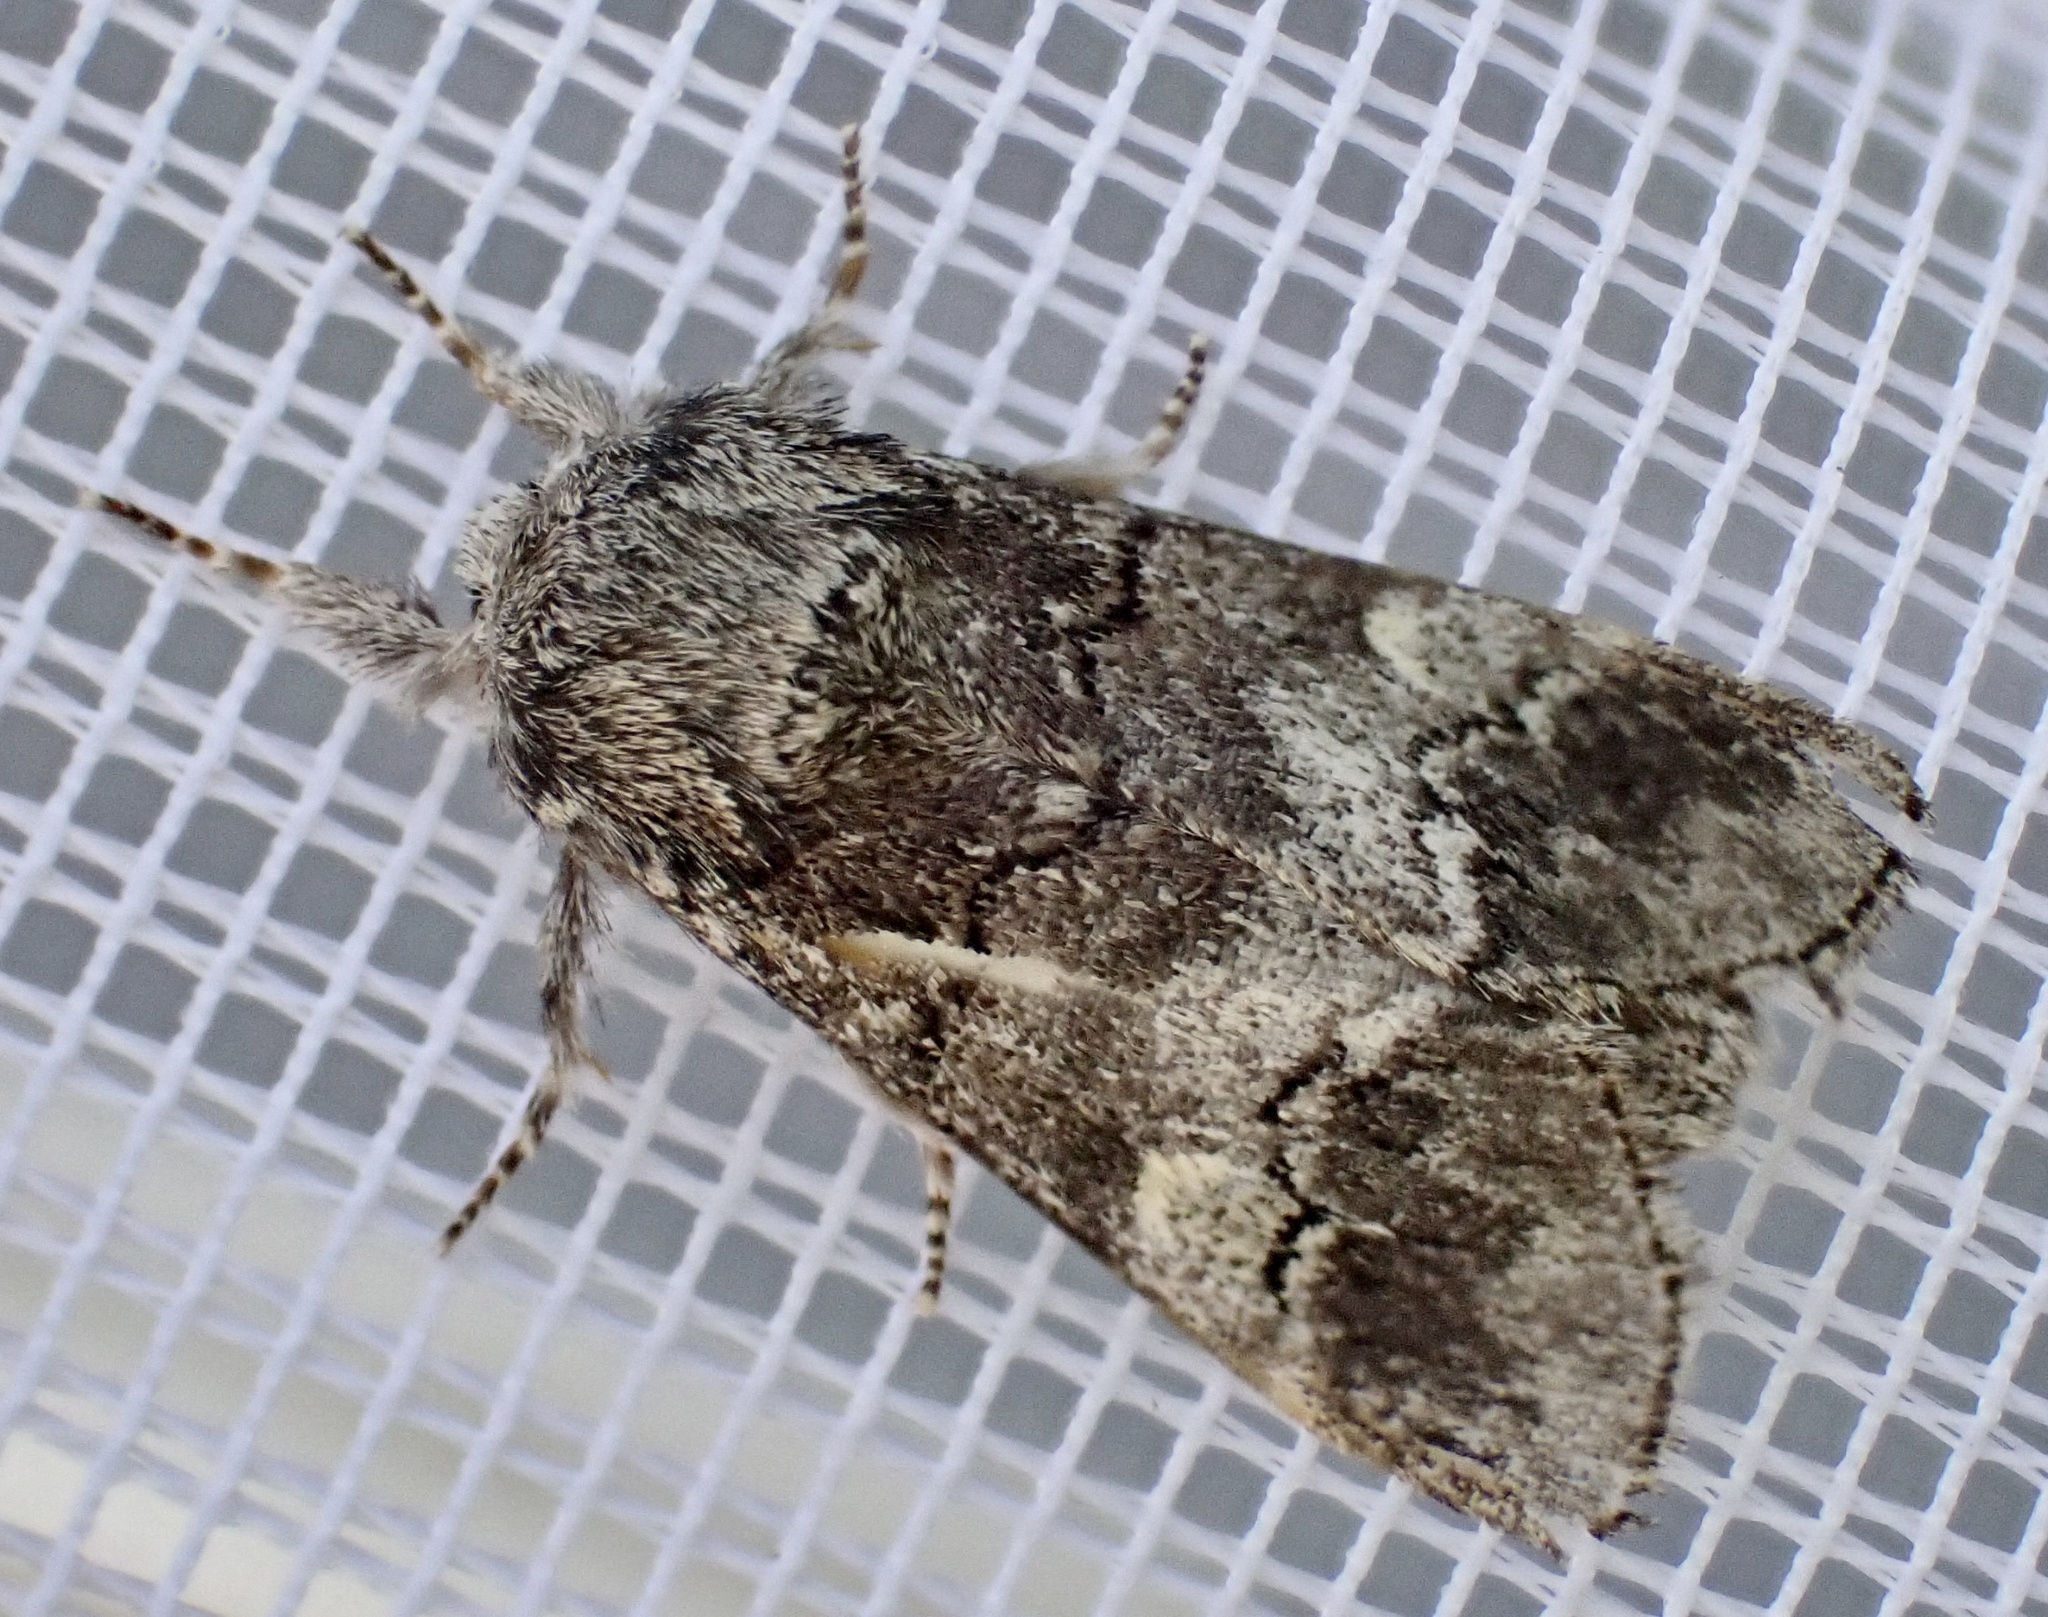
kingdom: Animalia
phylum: Arthropoda
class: Insecta
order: Lepidoptera
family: Notodontidae
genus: Drymonia
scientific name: Drymonia querna
